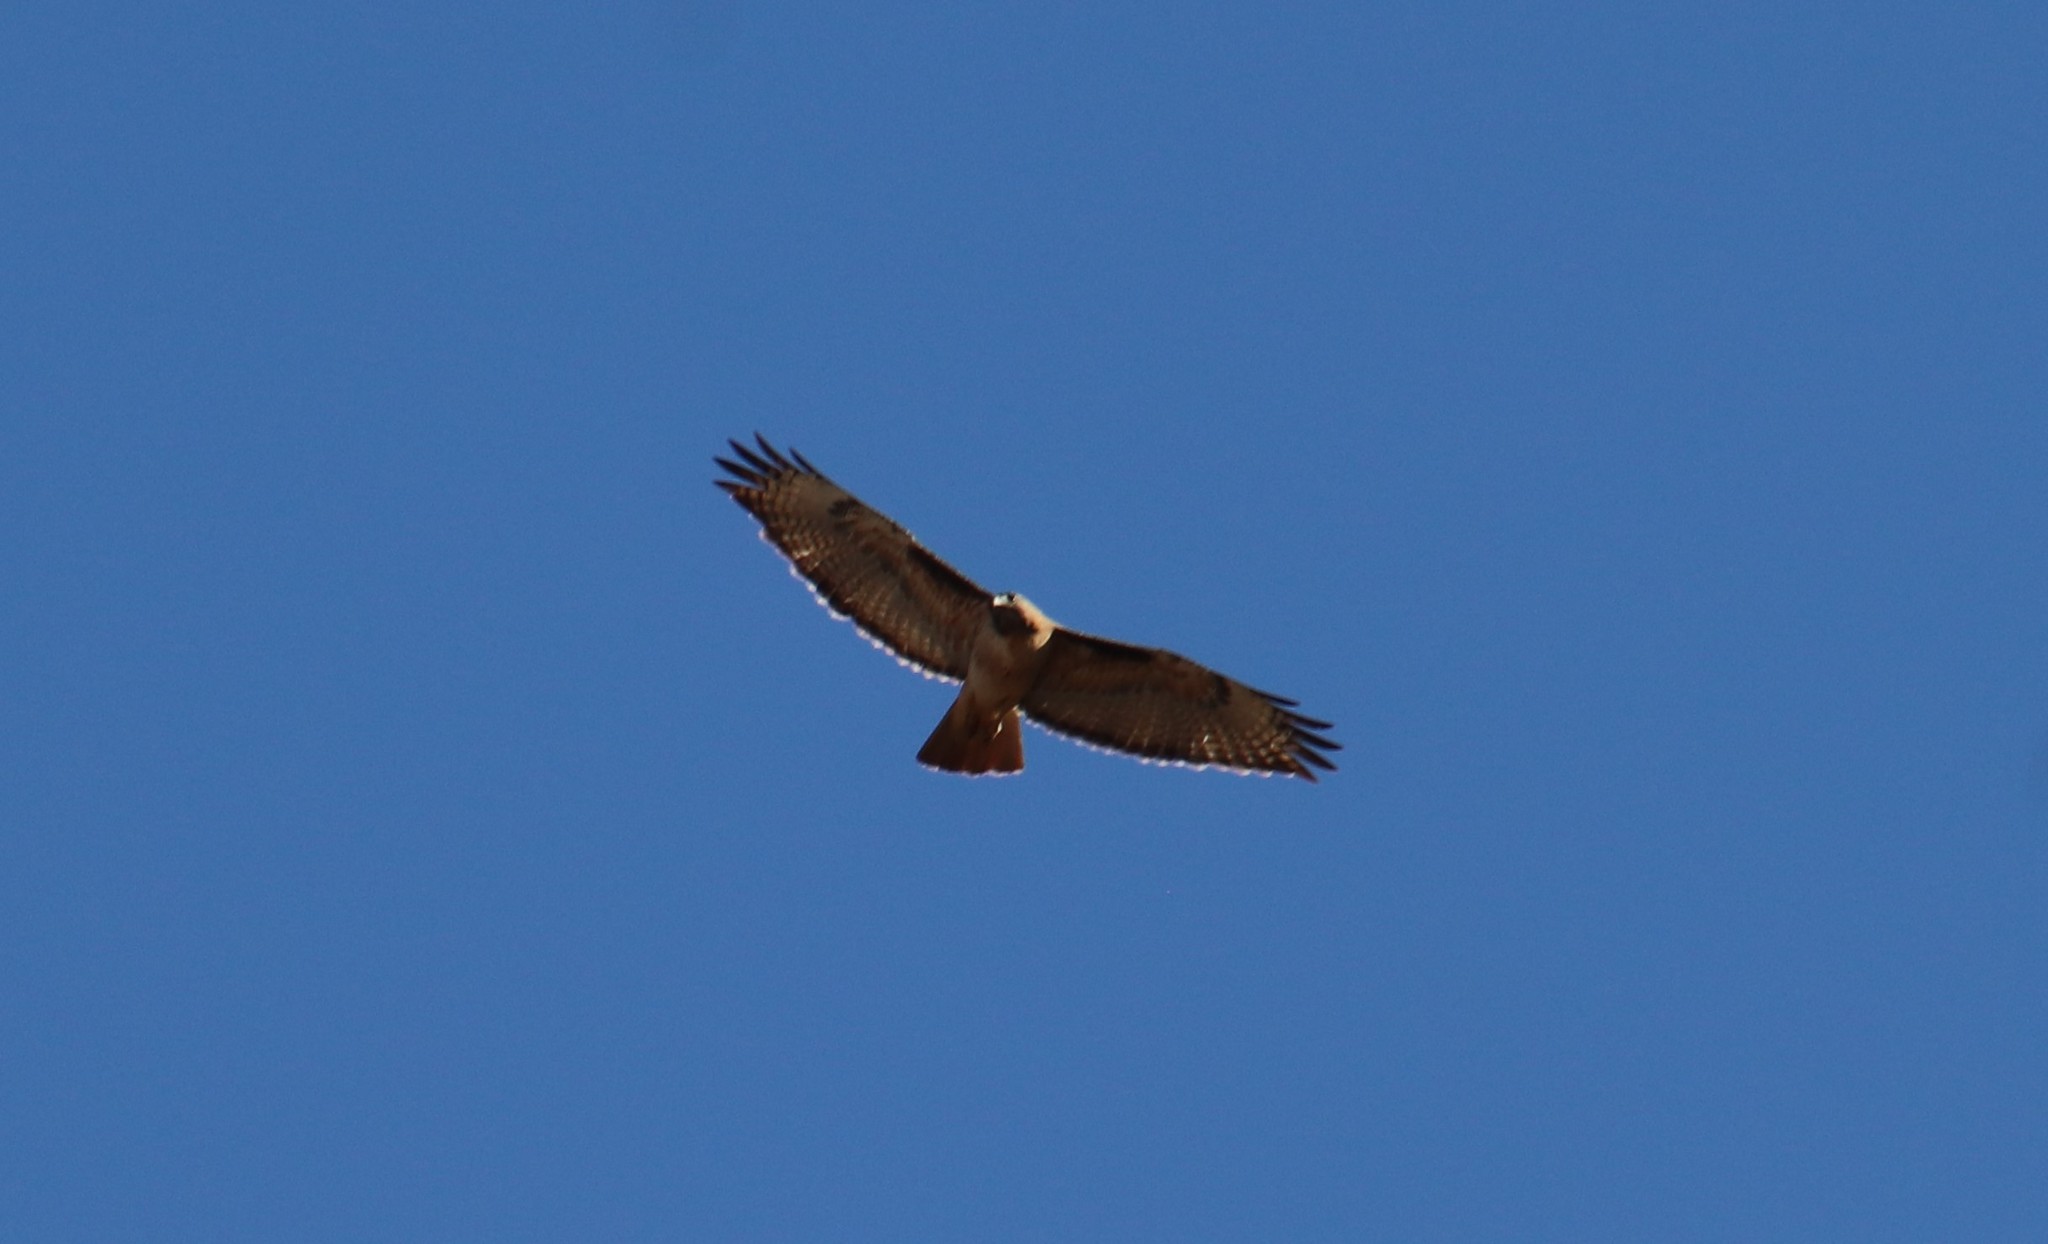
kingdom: Animalia
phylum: Chordata
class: Aves
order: Accipitriformes
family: Accipitridae
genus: Buteo
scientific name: Buteo jamaicensis
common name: Red-tailed hawk
